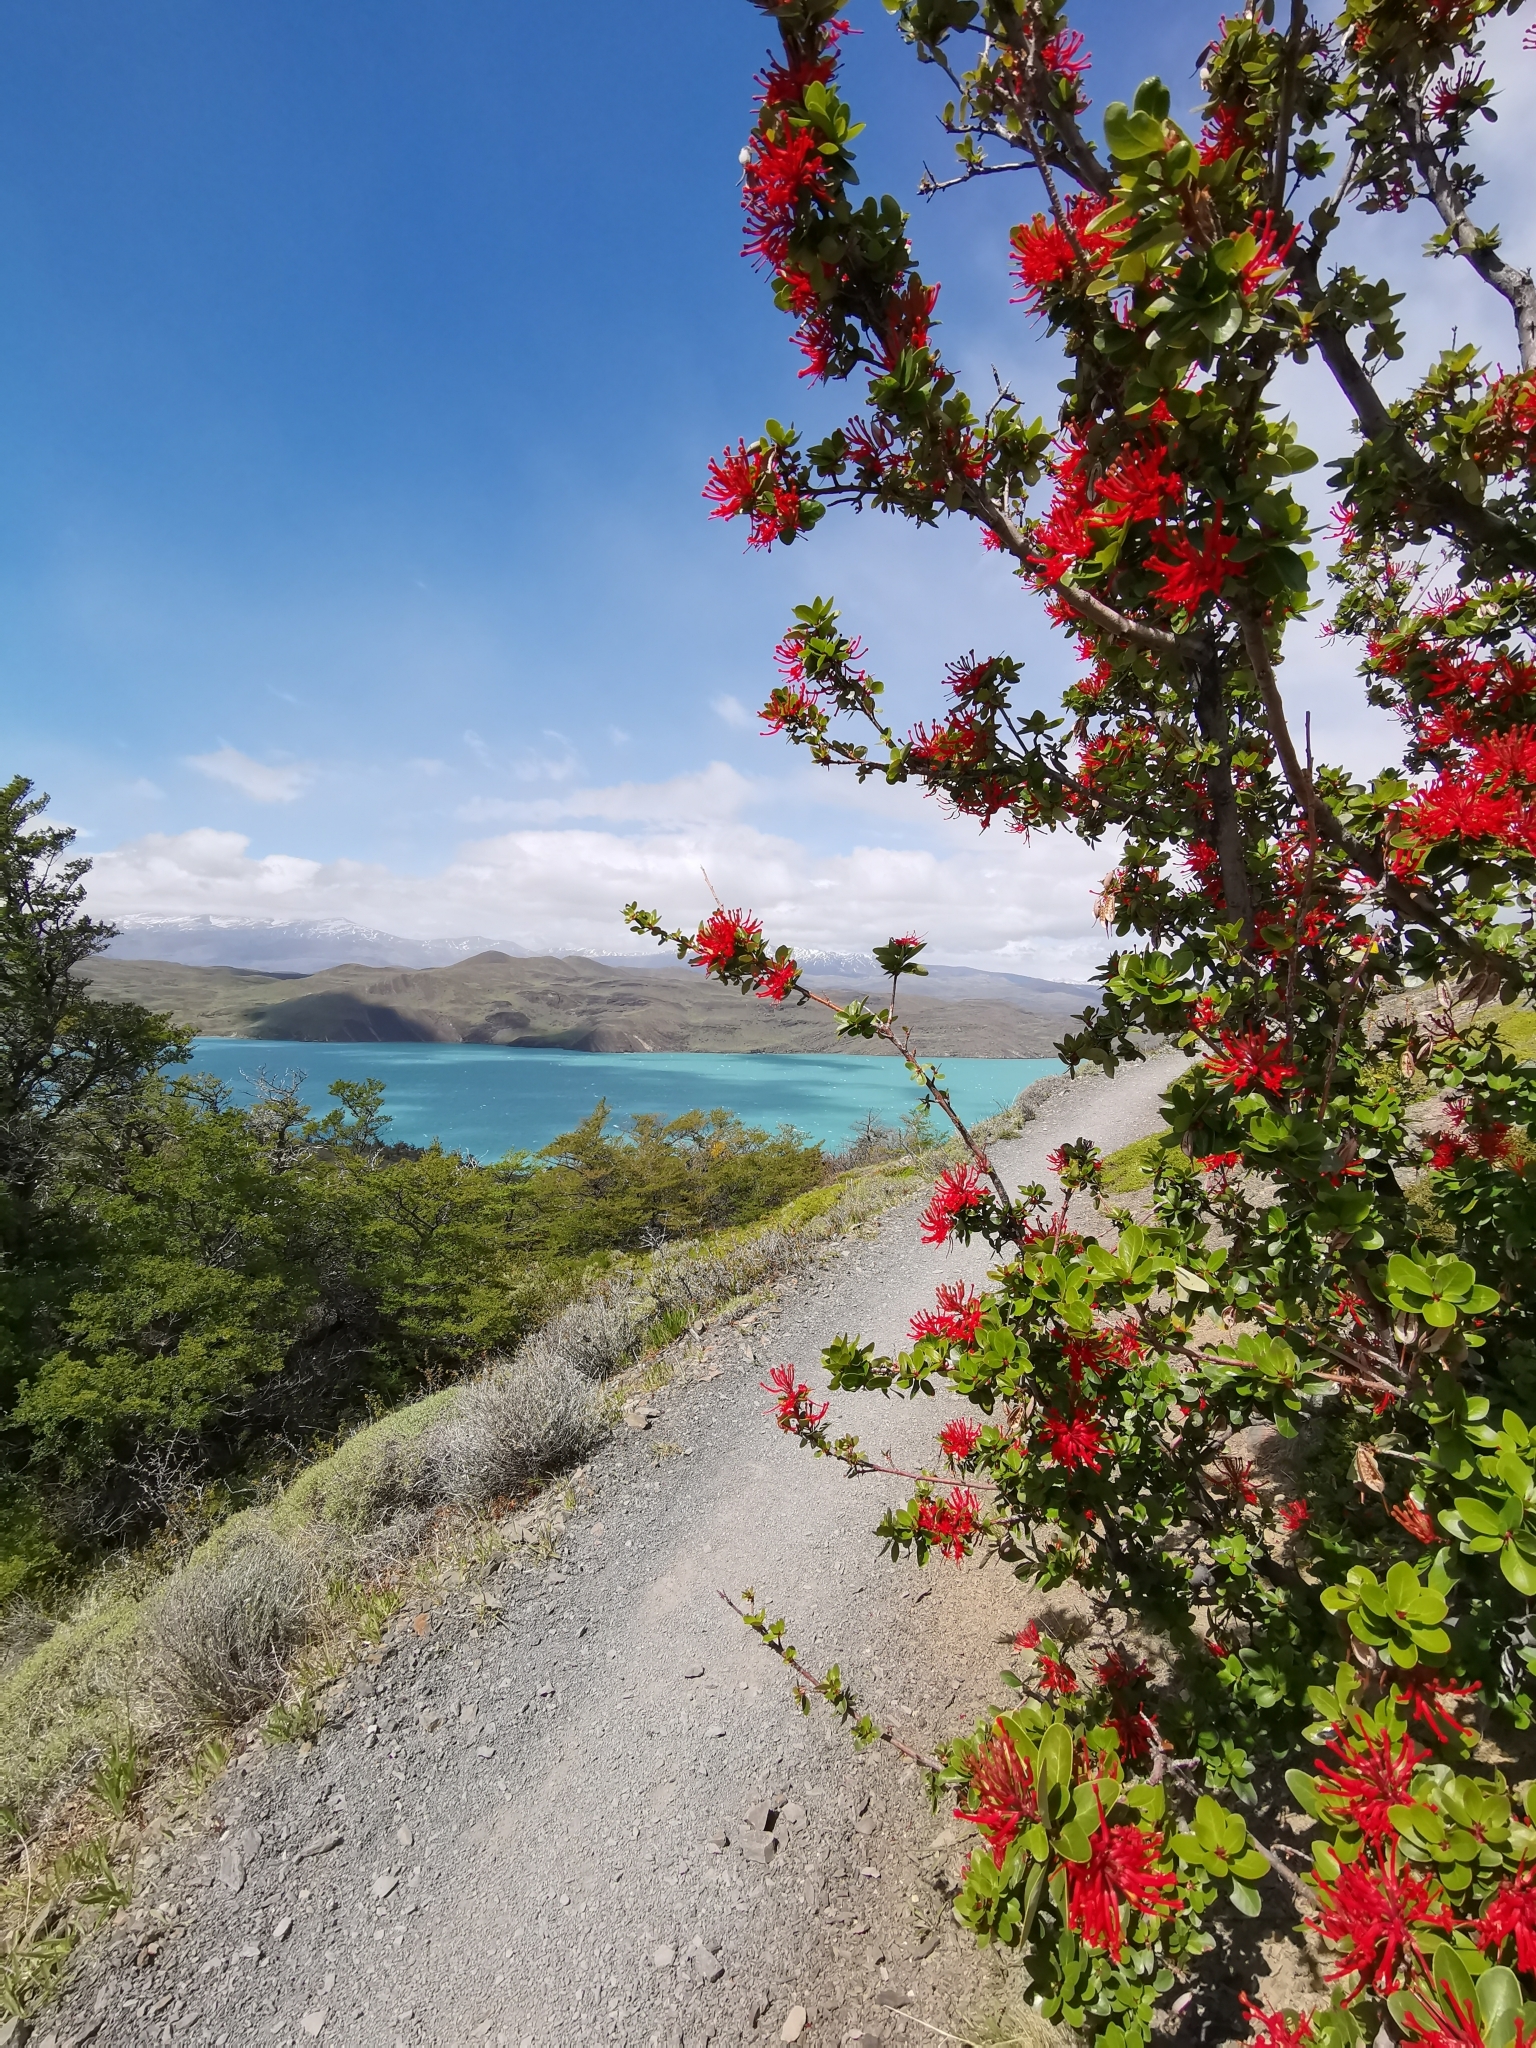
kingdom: Plantae
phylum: Tracheophyta
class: Magnoliopsida
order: Proteales
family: Proteaceae
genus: Embothrium
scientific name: Embothrium coccineum
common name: Chilean firebush
